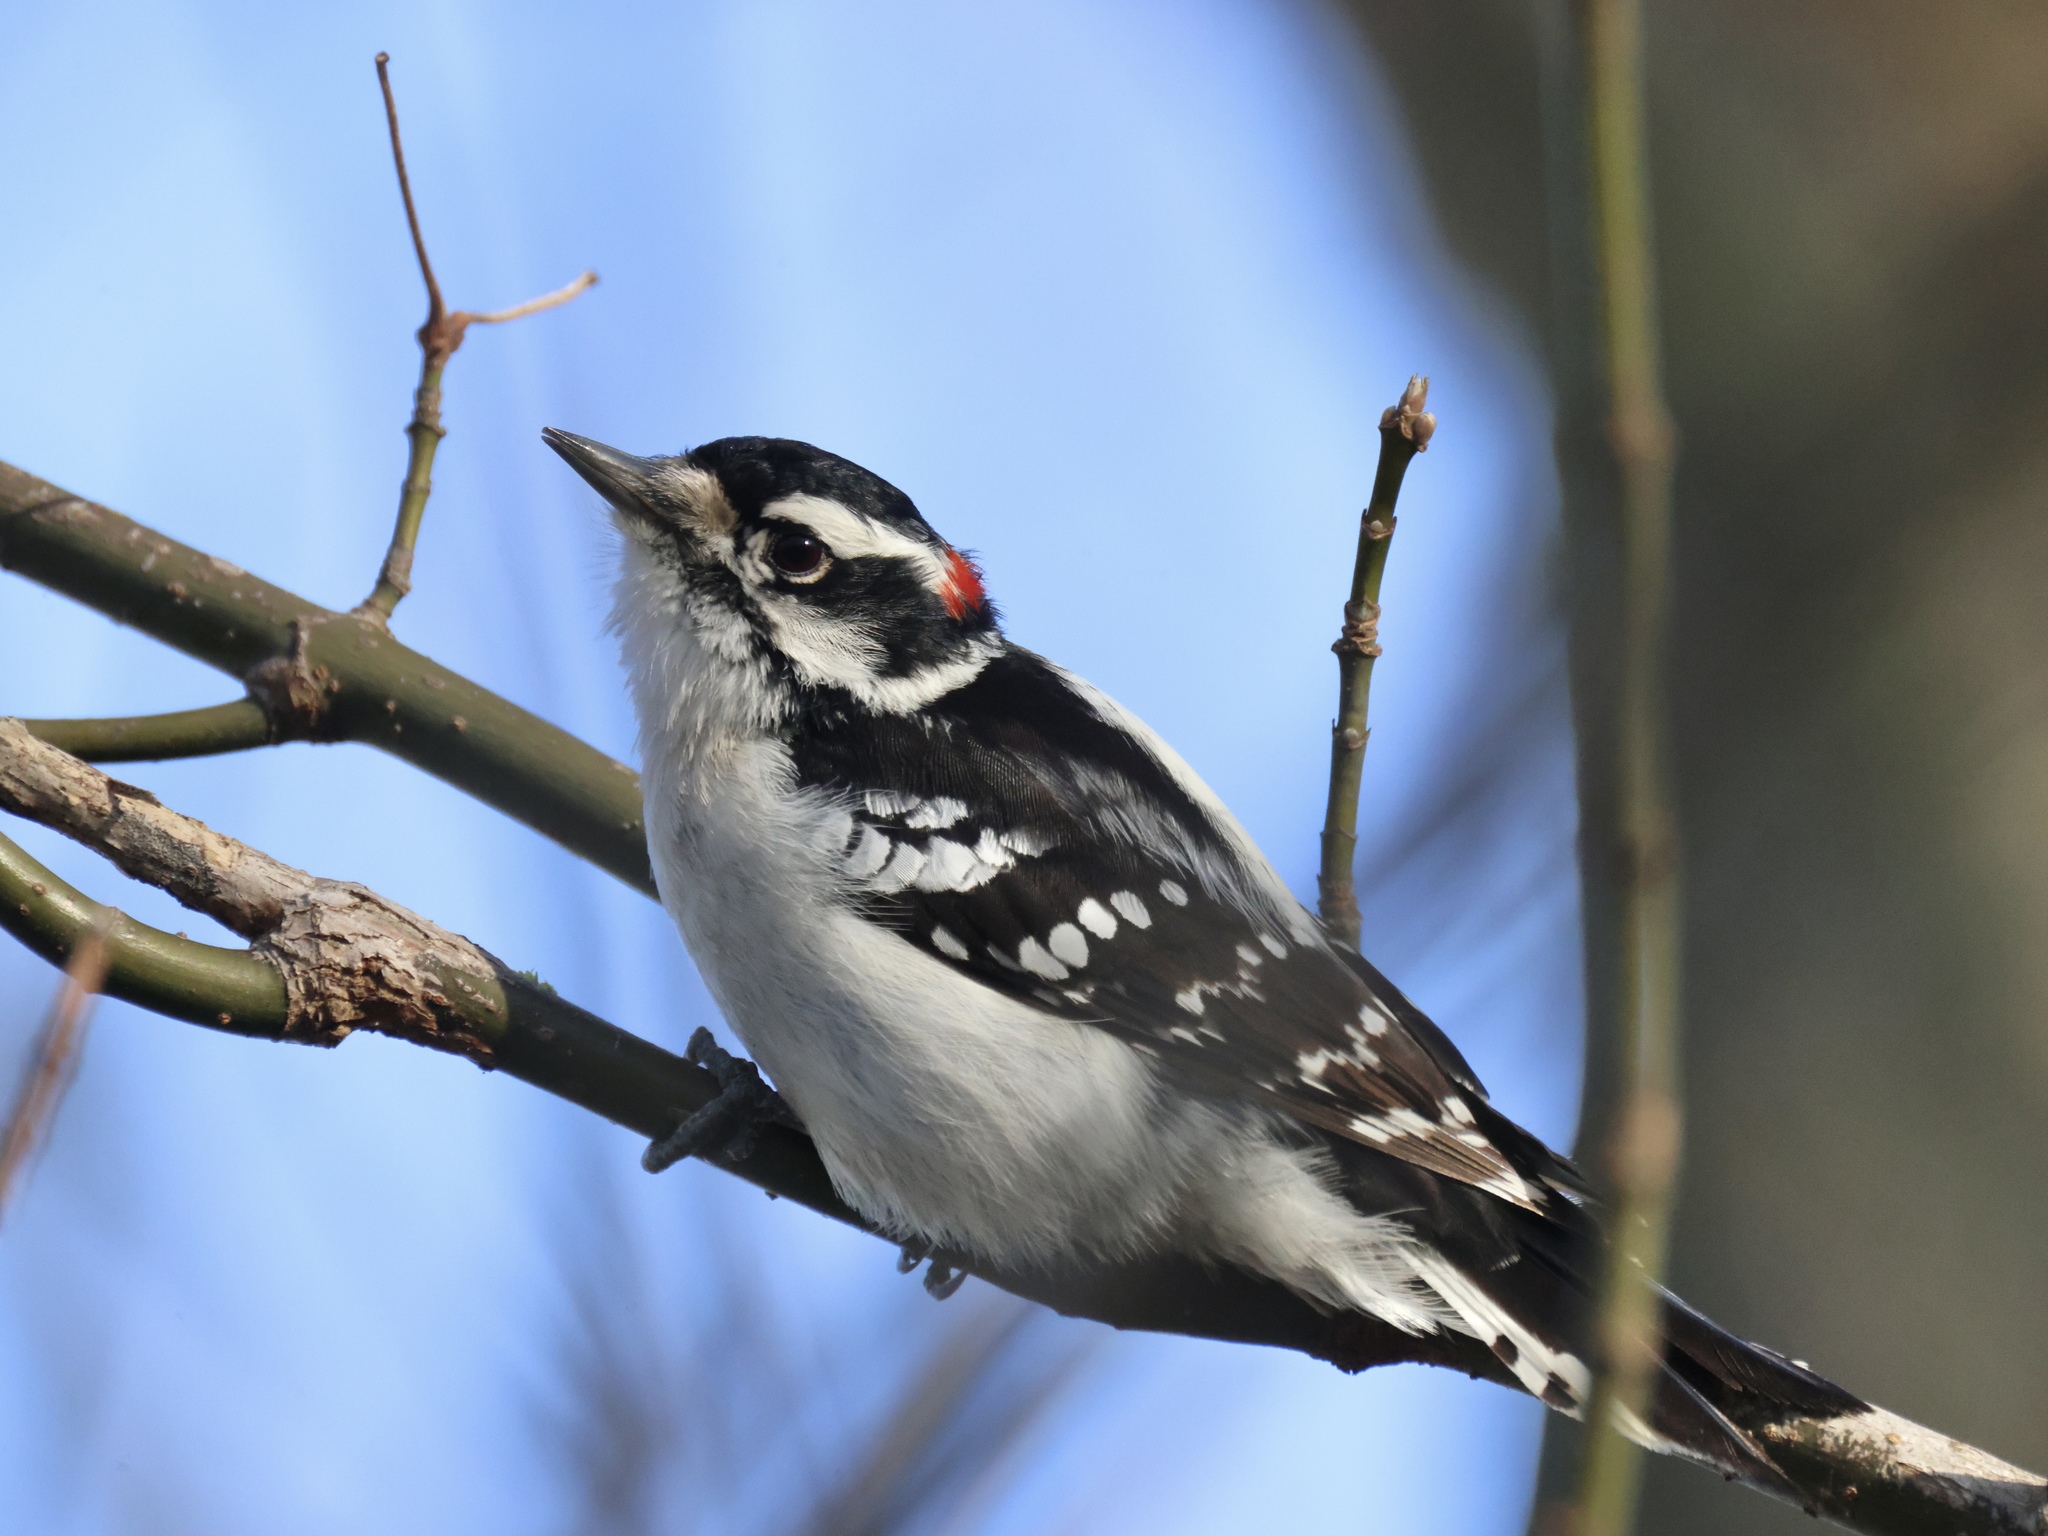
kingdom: Animalia
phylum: Chordata
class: Aves
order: Piciformes
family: Picidae
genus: Dryobates
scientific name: Dryobates pubescens
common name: Downy woodpecker
